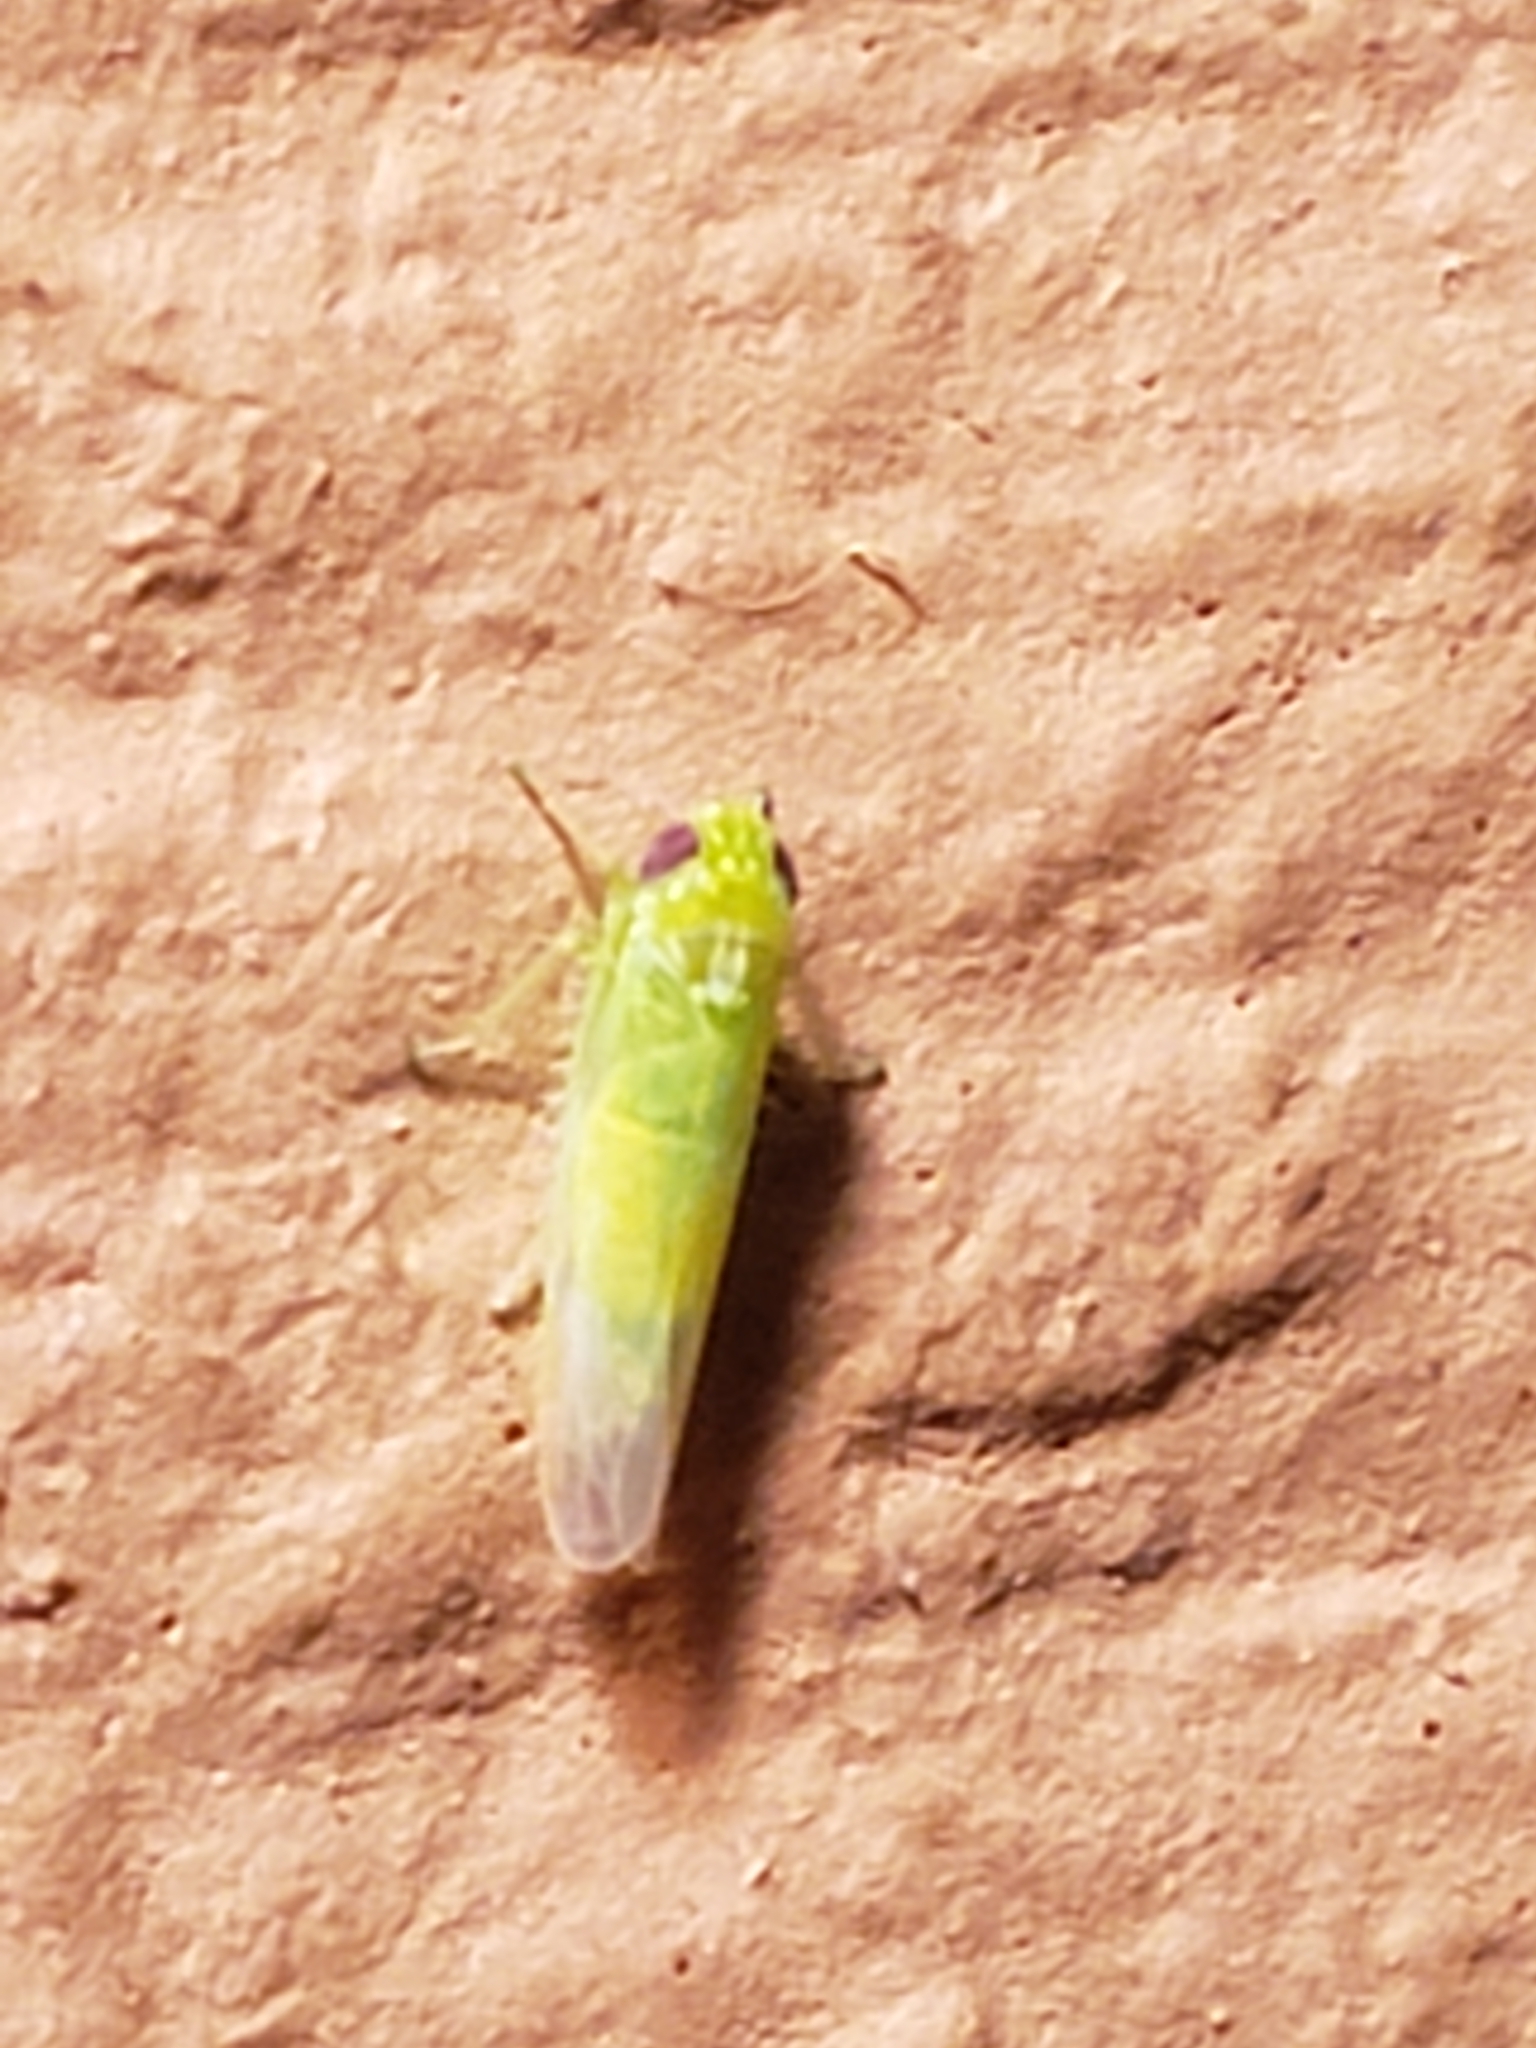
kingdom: Animalia
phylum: Arthropoda
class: Insecta
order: Hemiptera
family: Cicadellidae
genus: Empoasca
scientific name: Empoasca fabae
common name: Potato leafhopper
